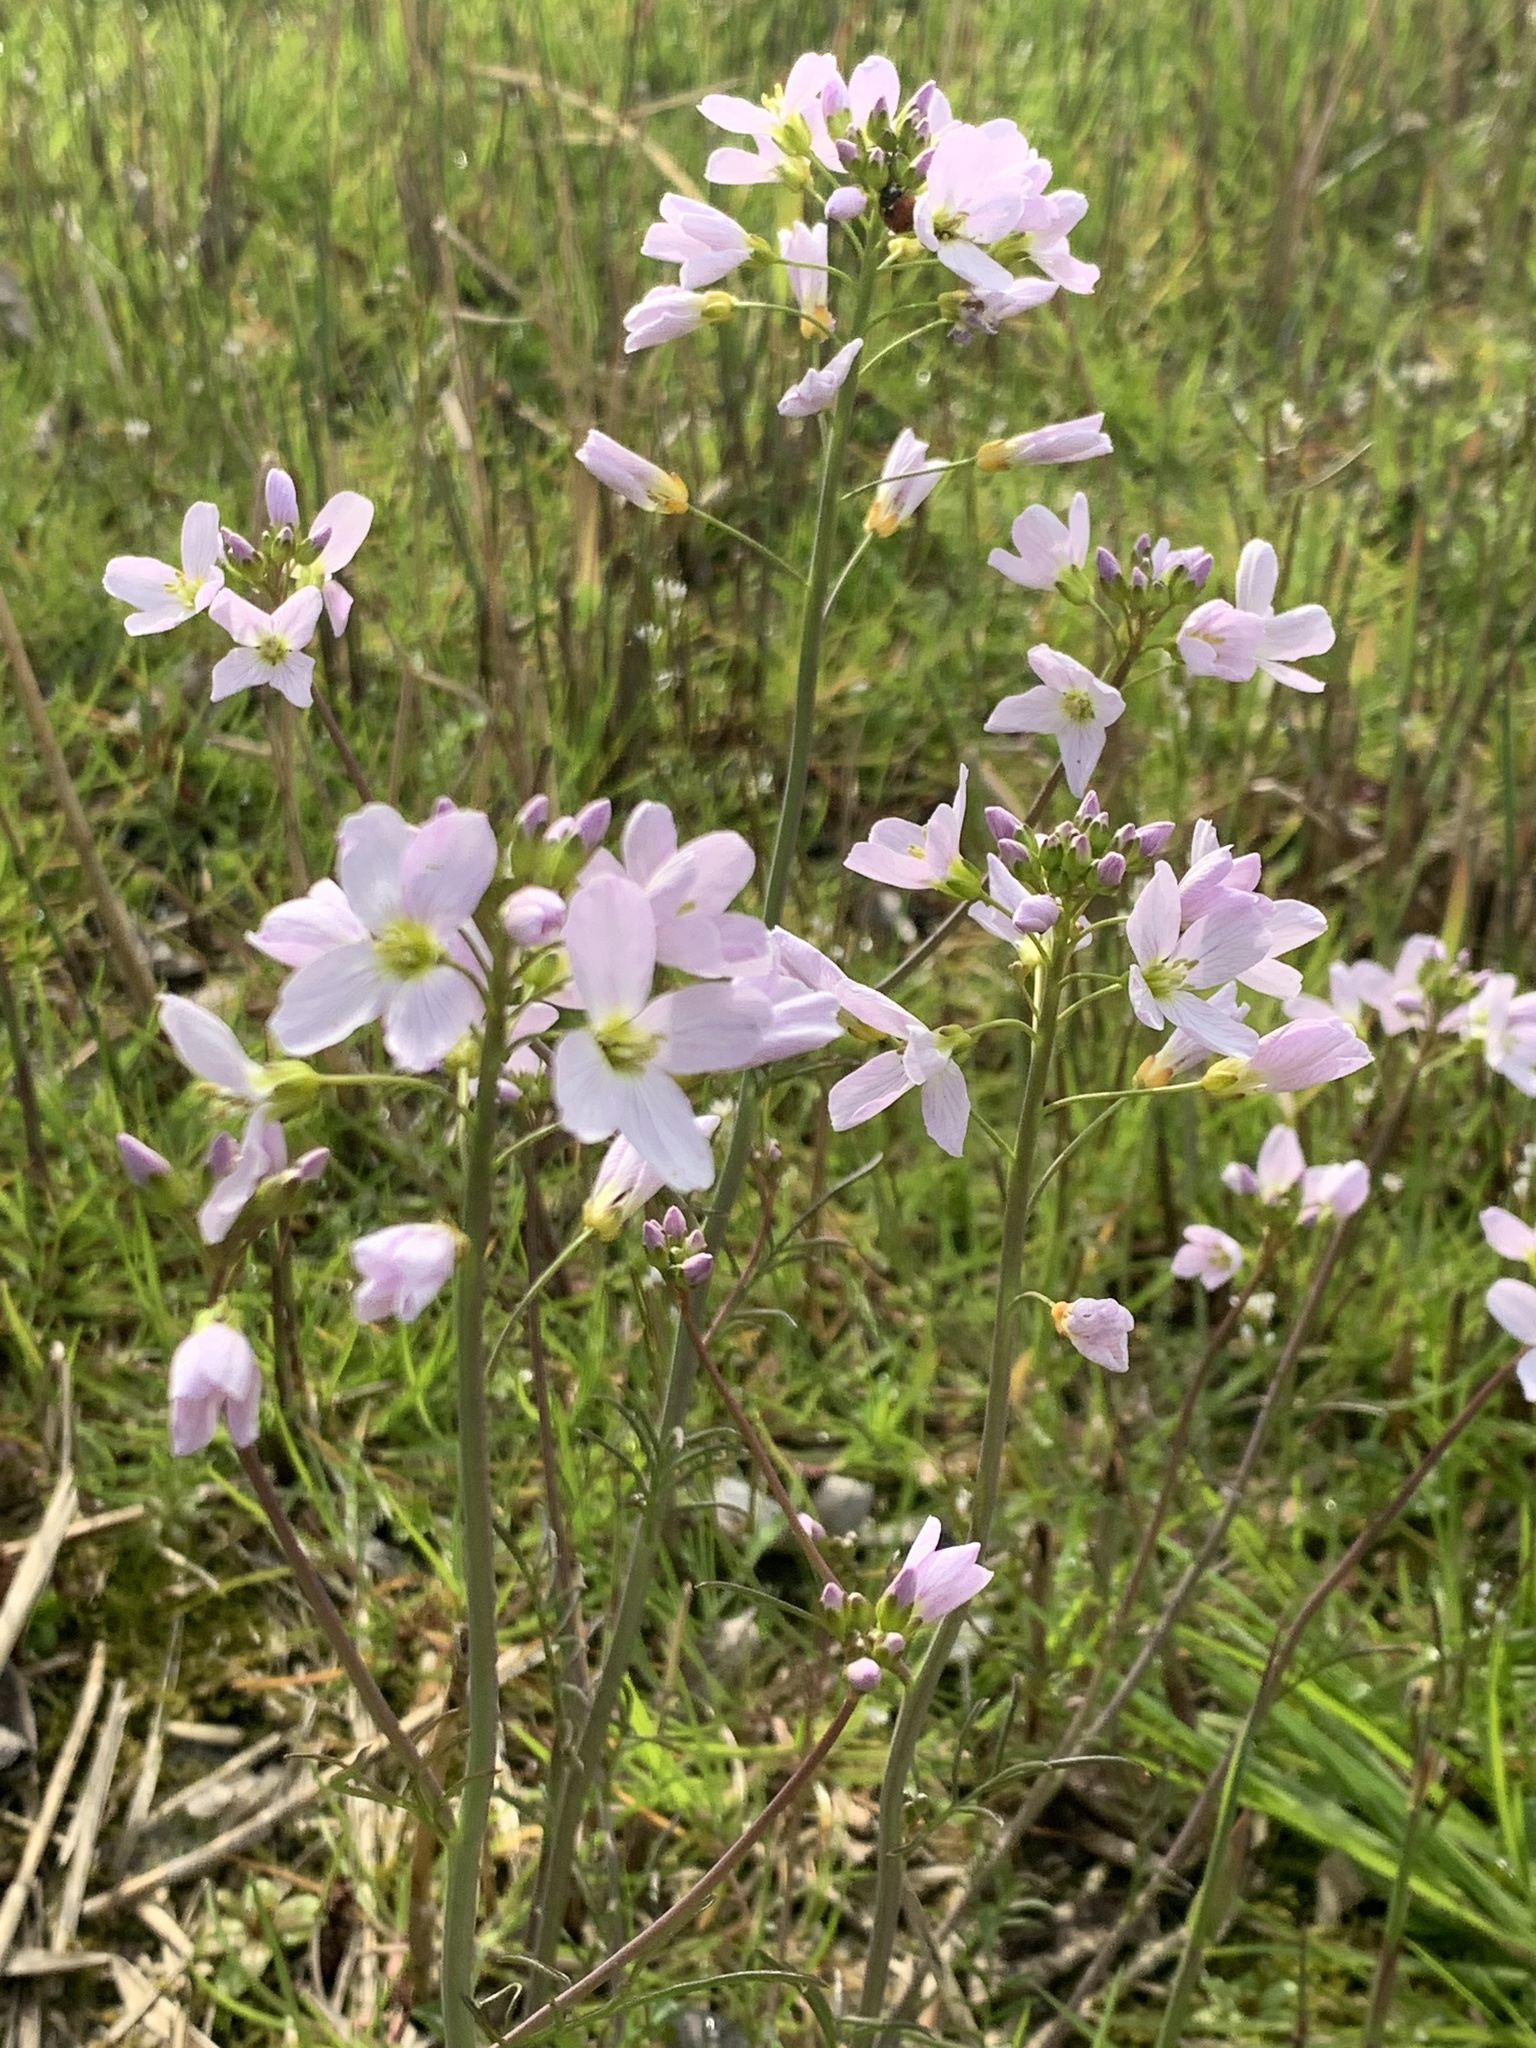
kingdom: Plantae
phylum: Tracheophyta
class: Magnoliopsida
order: Brassicales
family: Brassicaceae
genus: Cardamine
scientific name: Cardamine pratensis
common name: Cuckoo flower
